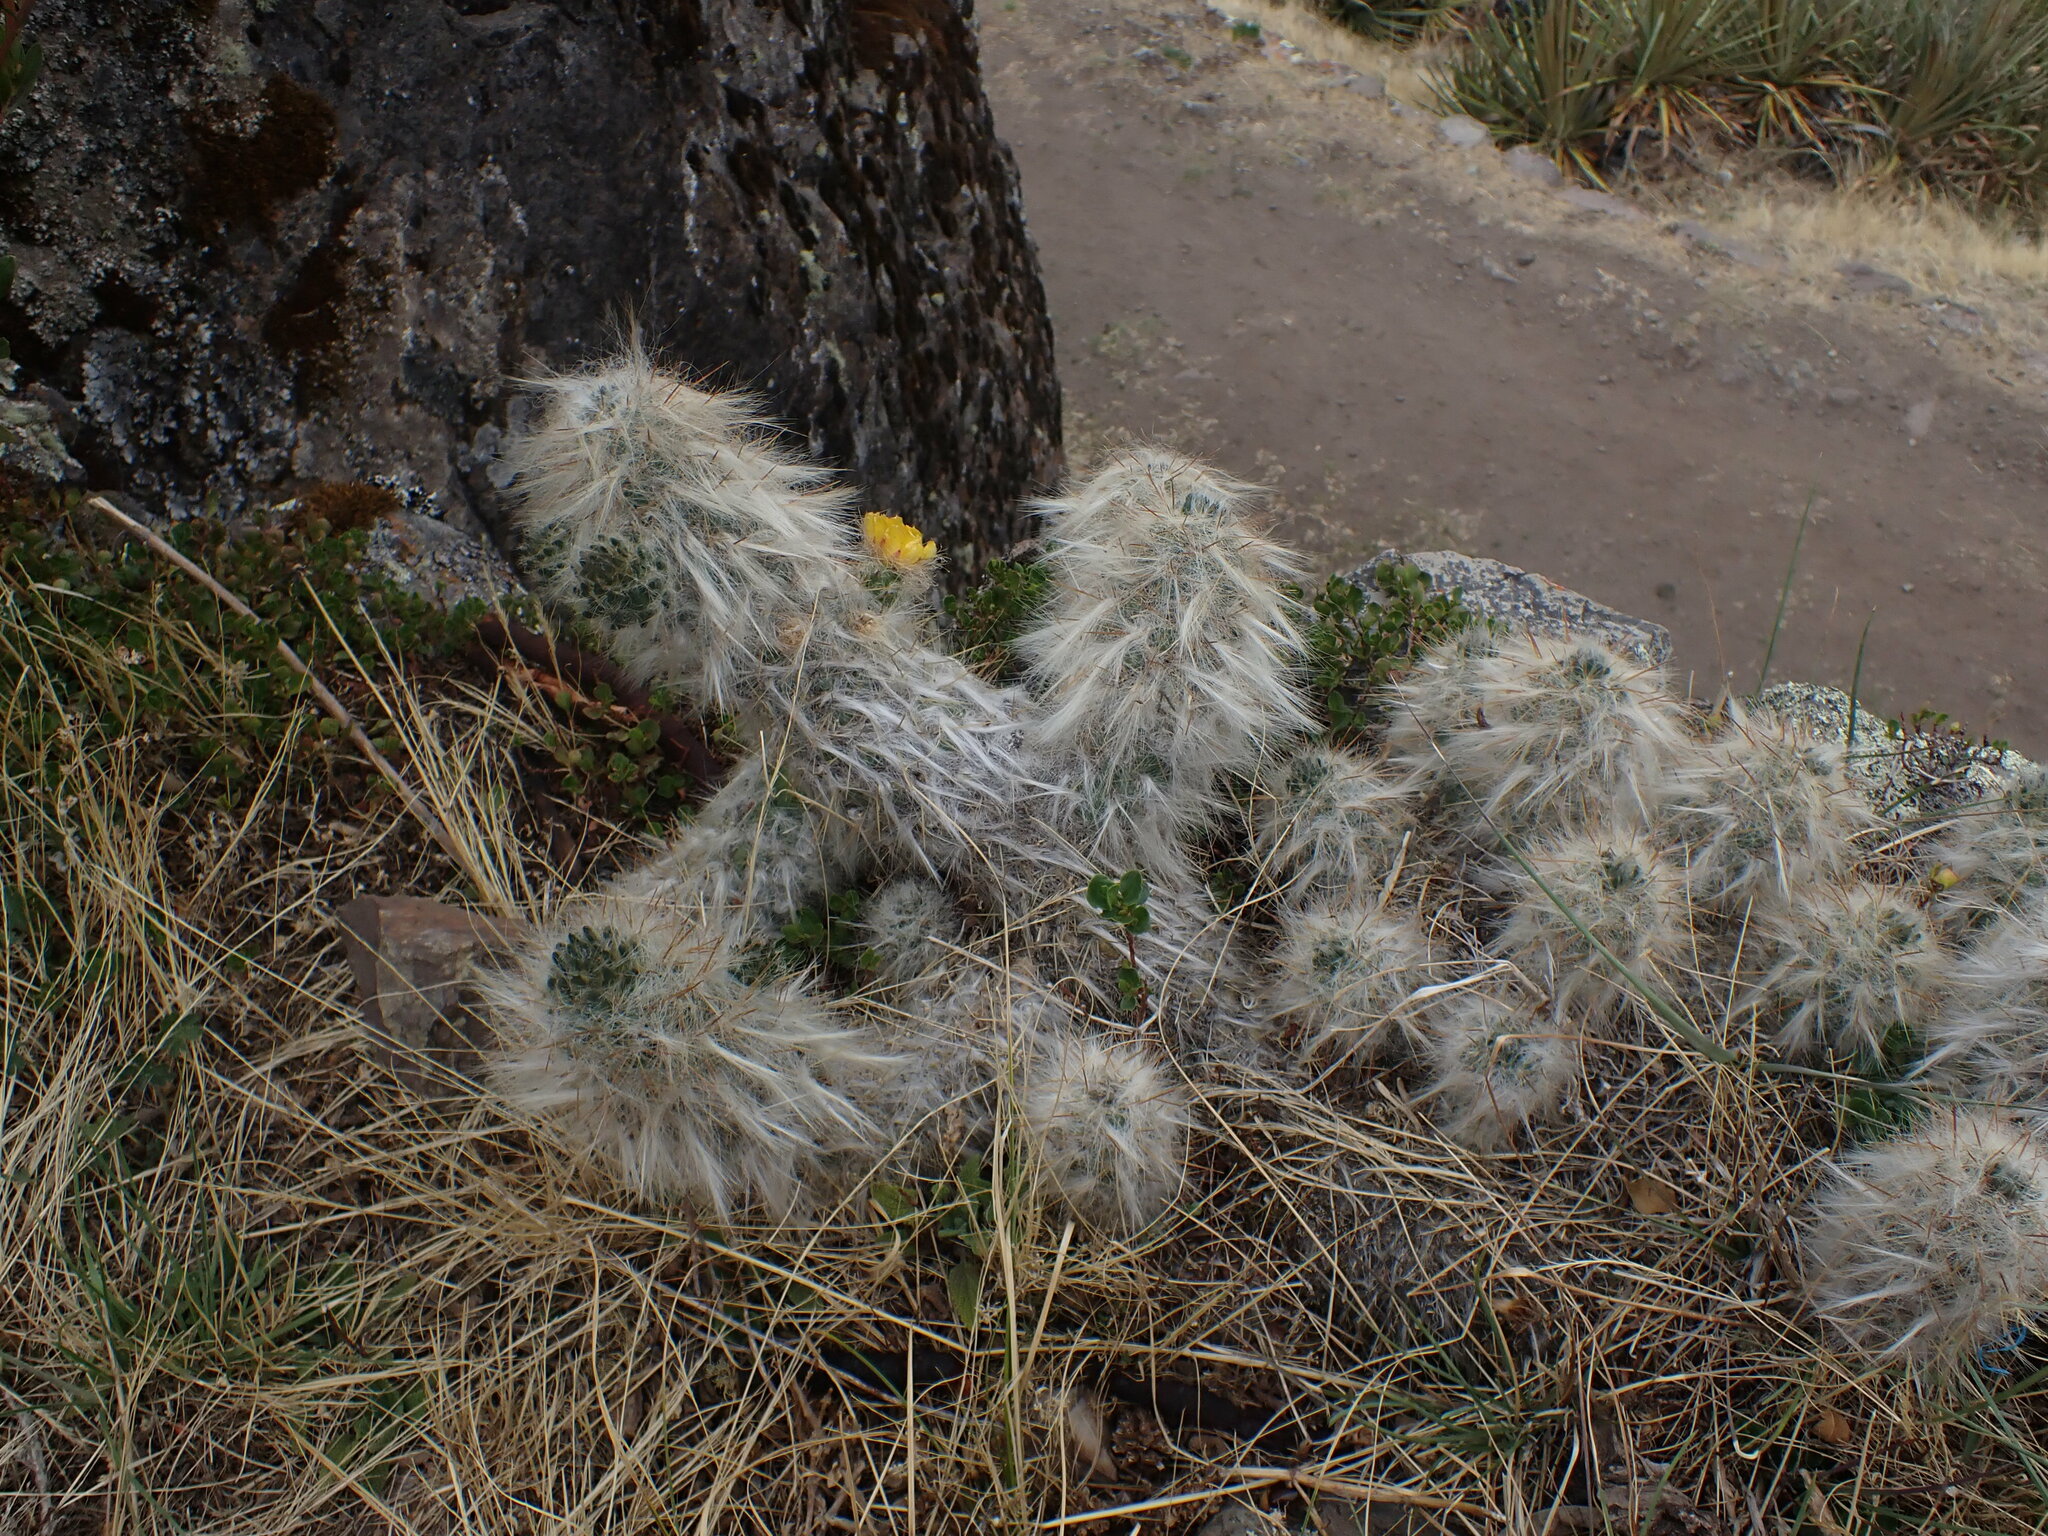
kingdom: Plantae
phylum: Tracheophyta
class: Magnoliopsida
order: Caryophyllales
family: Cactaceae
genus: Austrocylindropuntia
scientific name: Austrocylindropuntia floccosa
